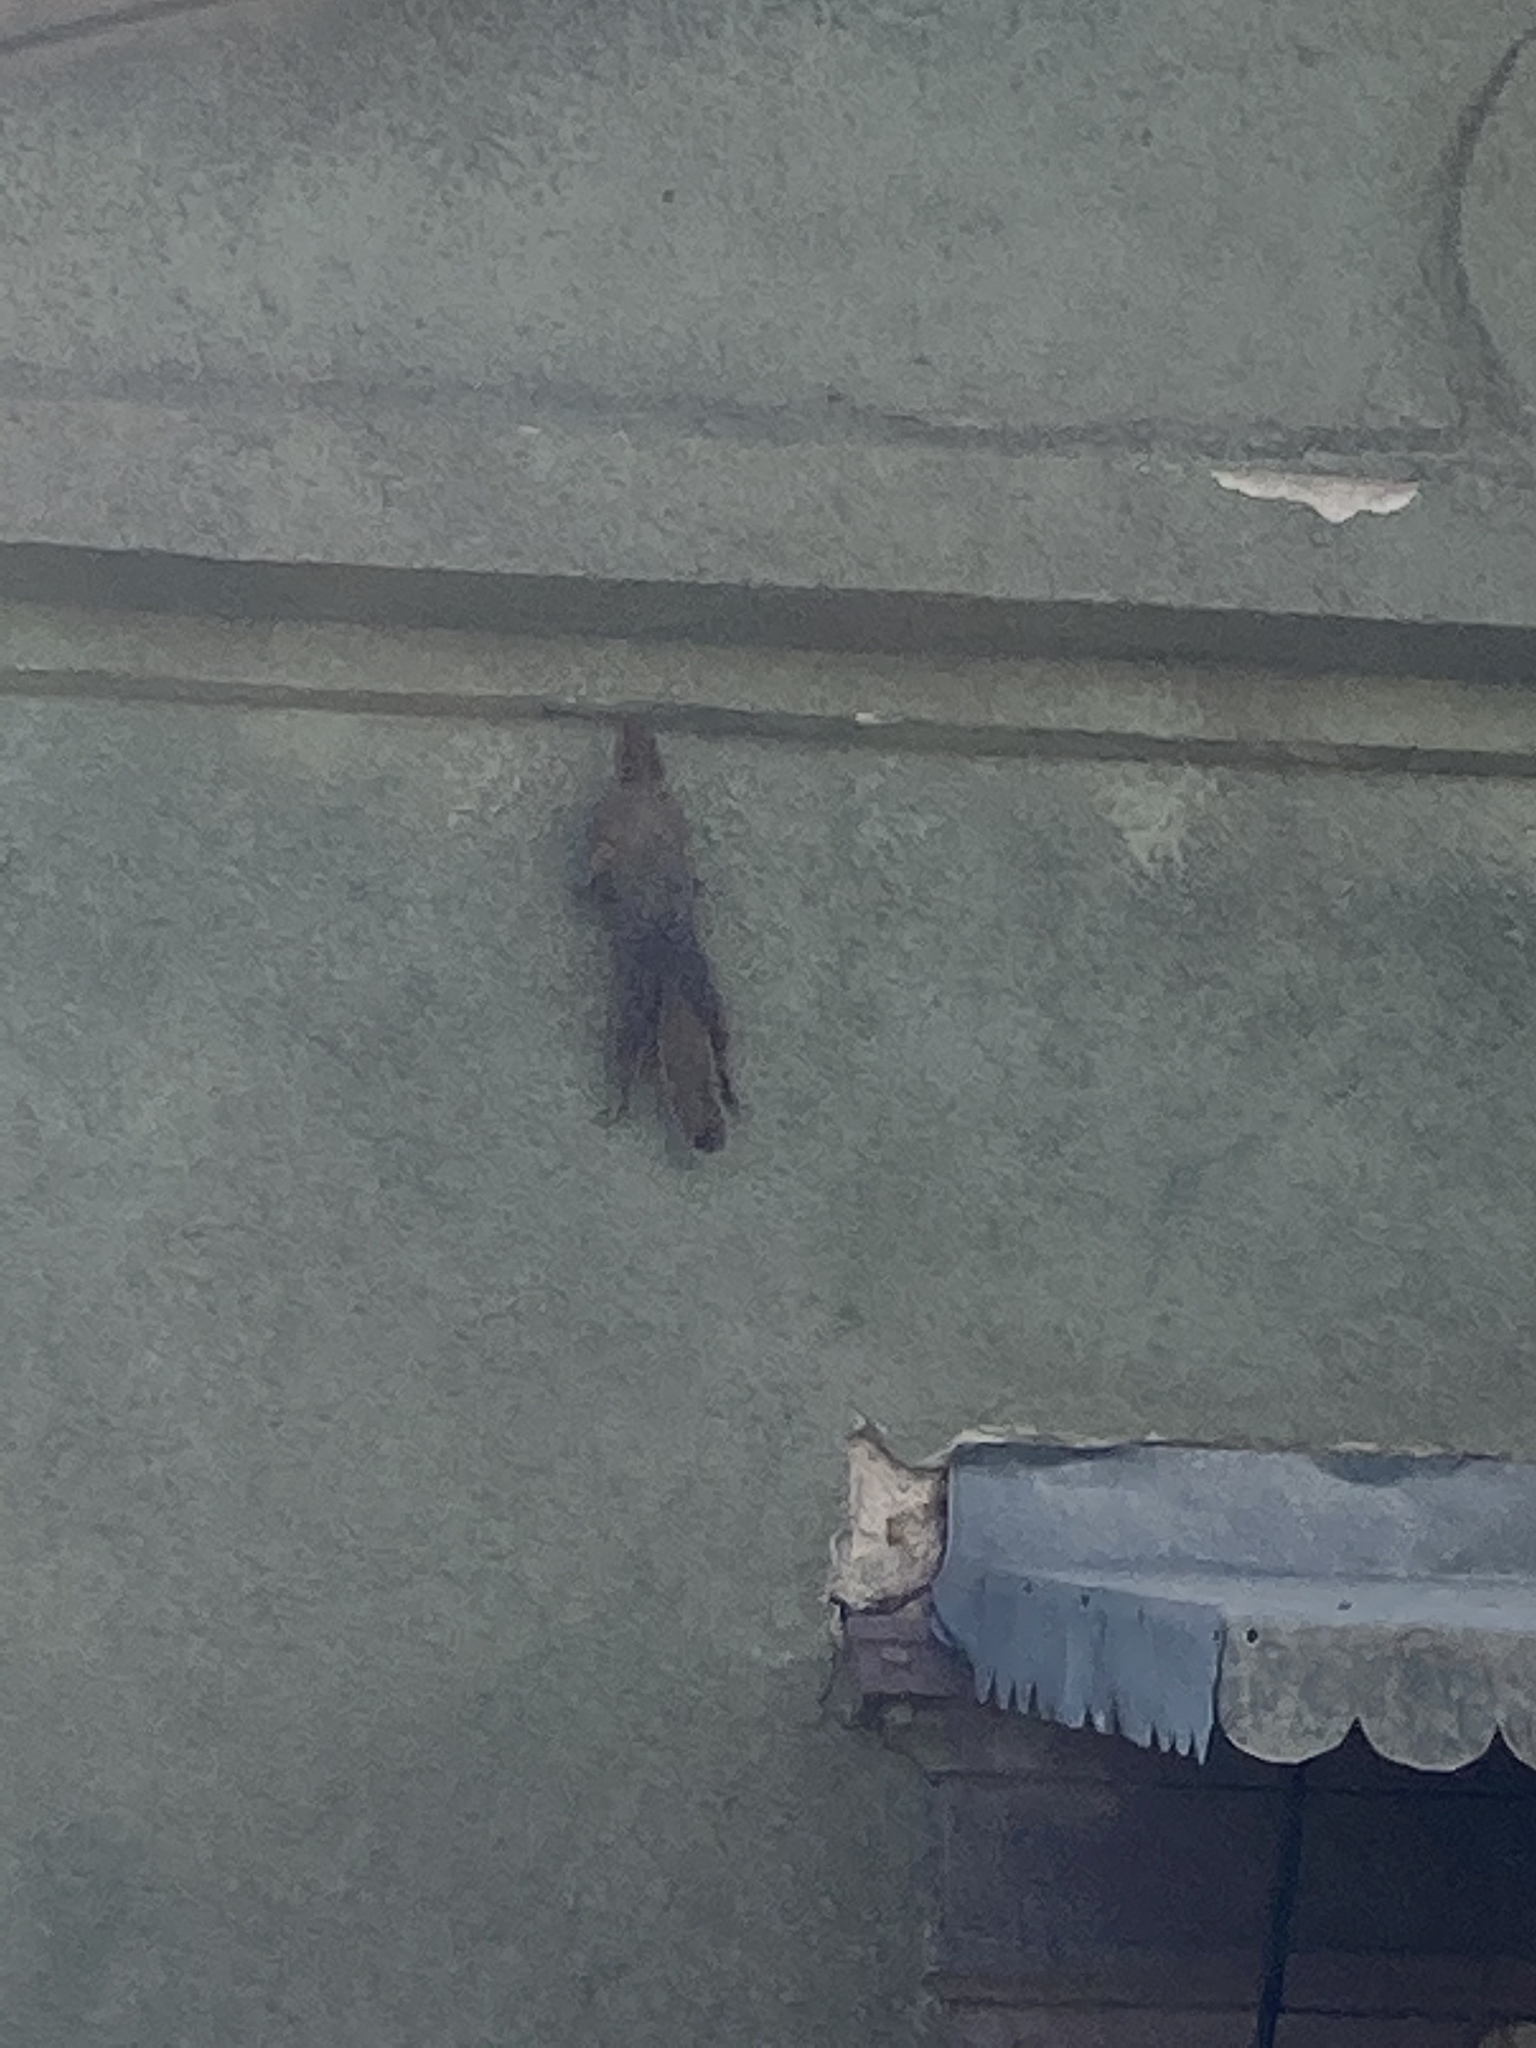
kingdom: Animalia
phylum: Chordata
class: Mammalia
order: Rodentia
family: Sciuridae
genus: Sciurus
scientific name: Sciurus anomalus
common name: Caucasian squirrel
